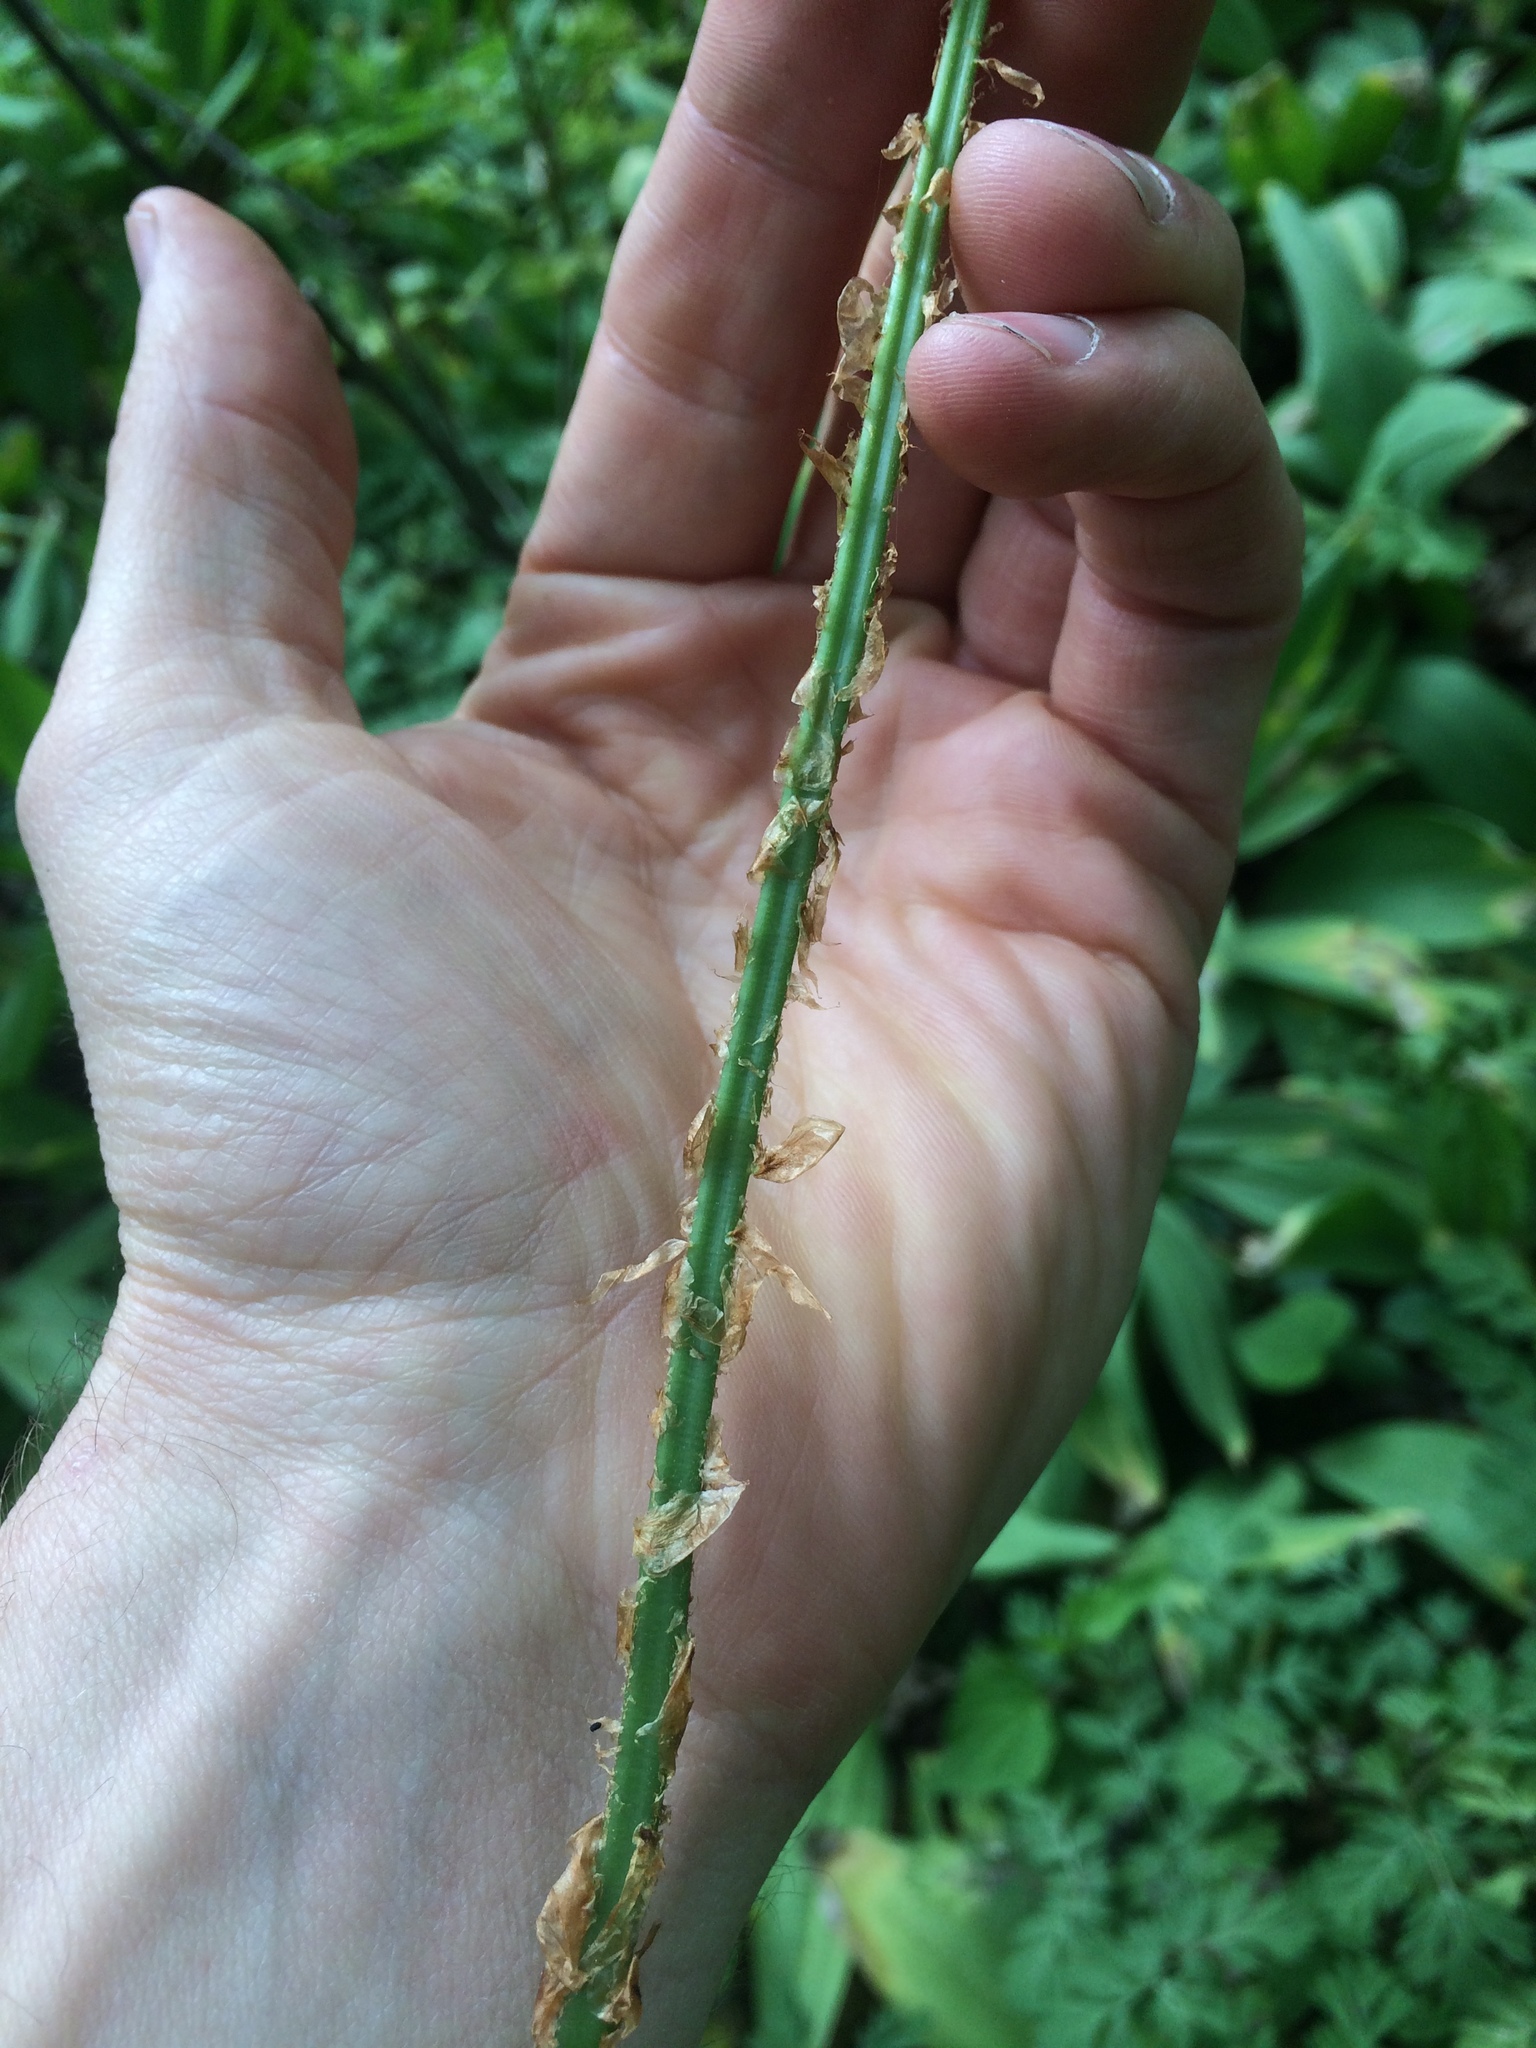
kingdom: Plantae
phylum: Tracheophyta
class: Polypodiopsida
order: Polypodiales
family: Dryopteridaceae
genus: Dryopteris
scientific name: Dryopteris carthusiana
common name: Narrow buckler-fern
